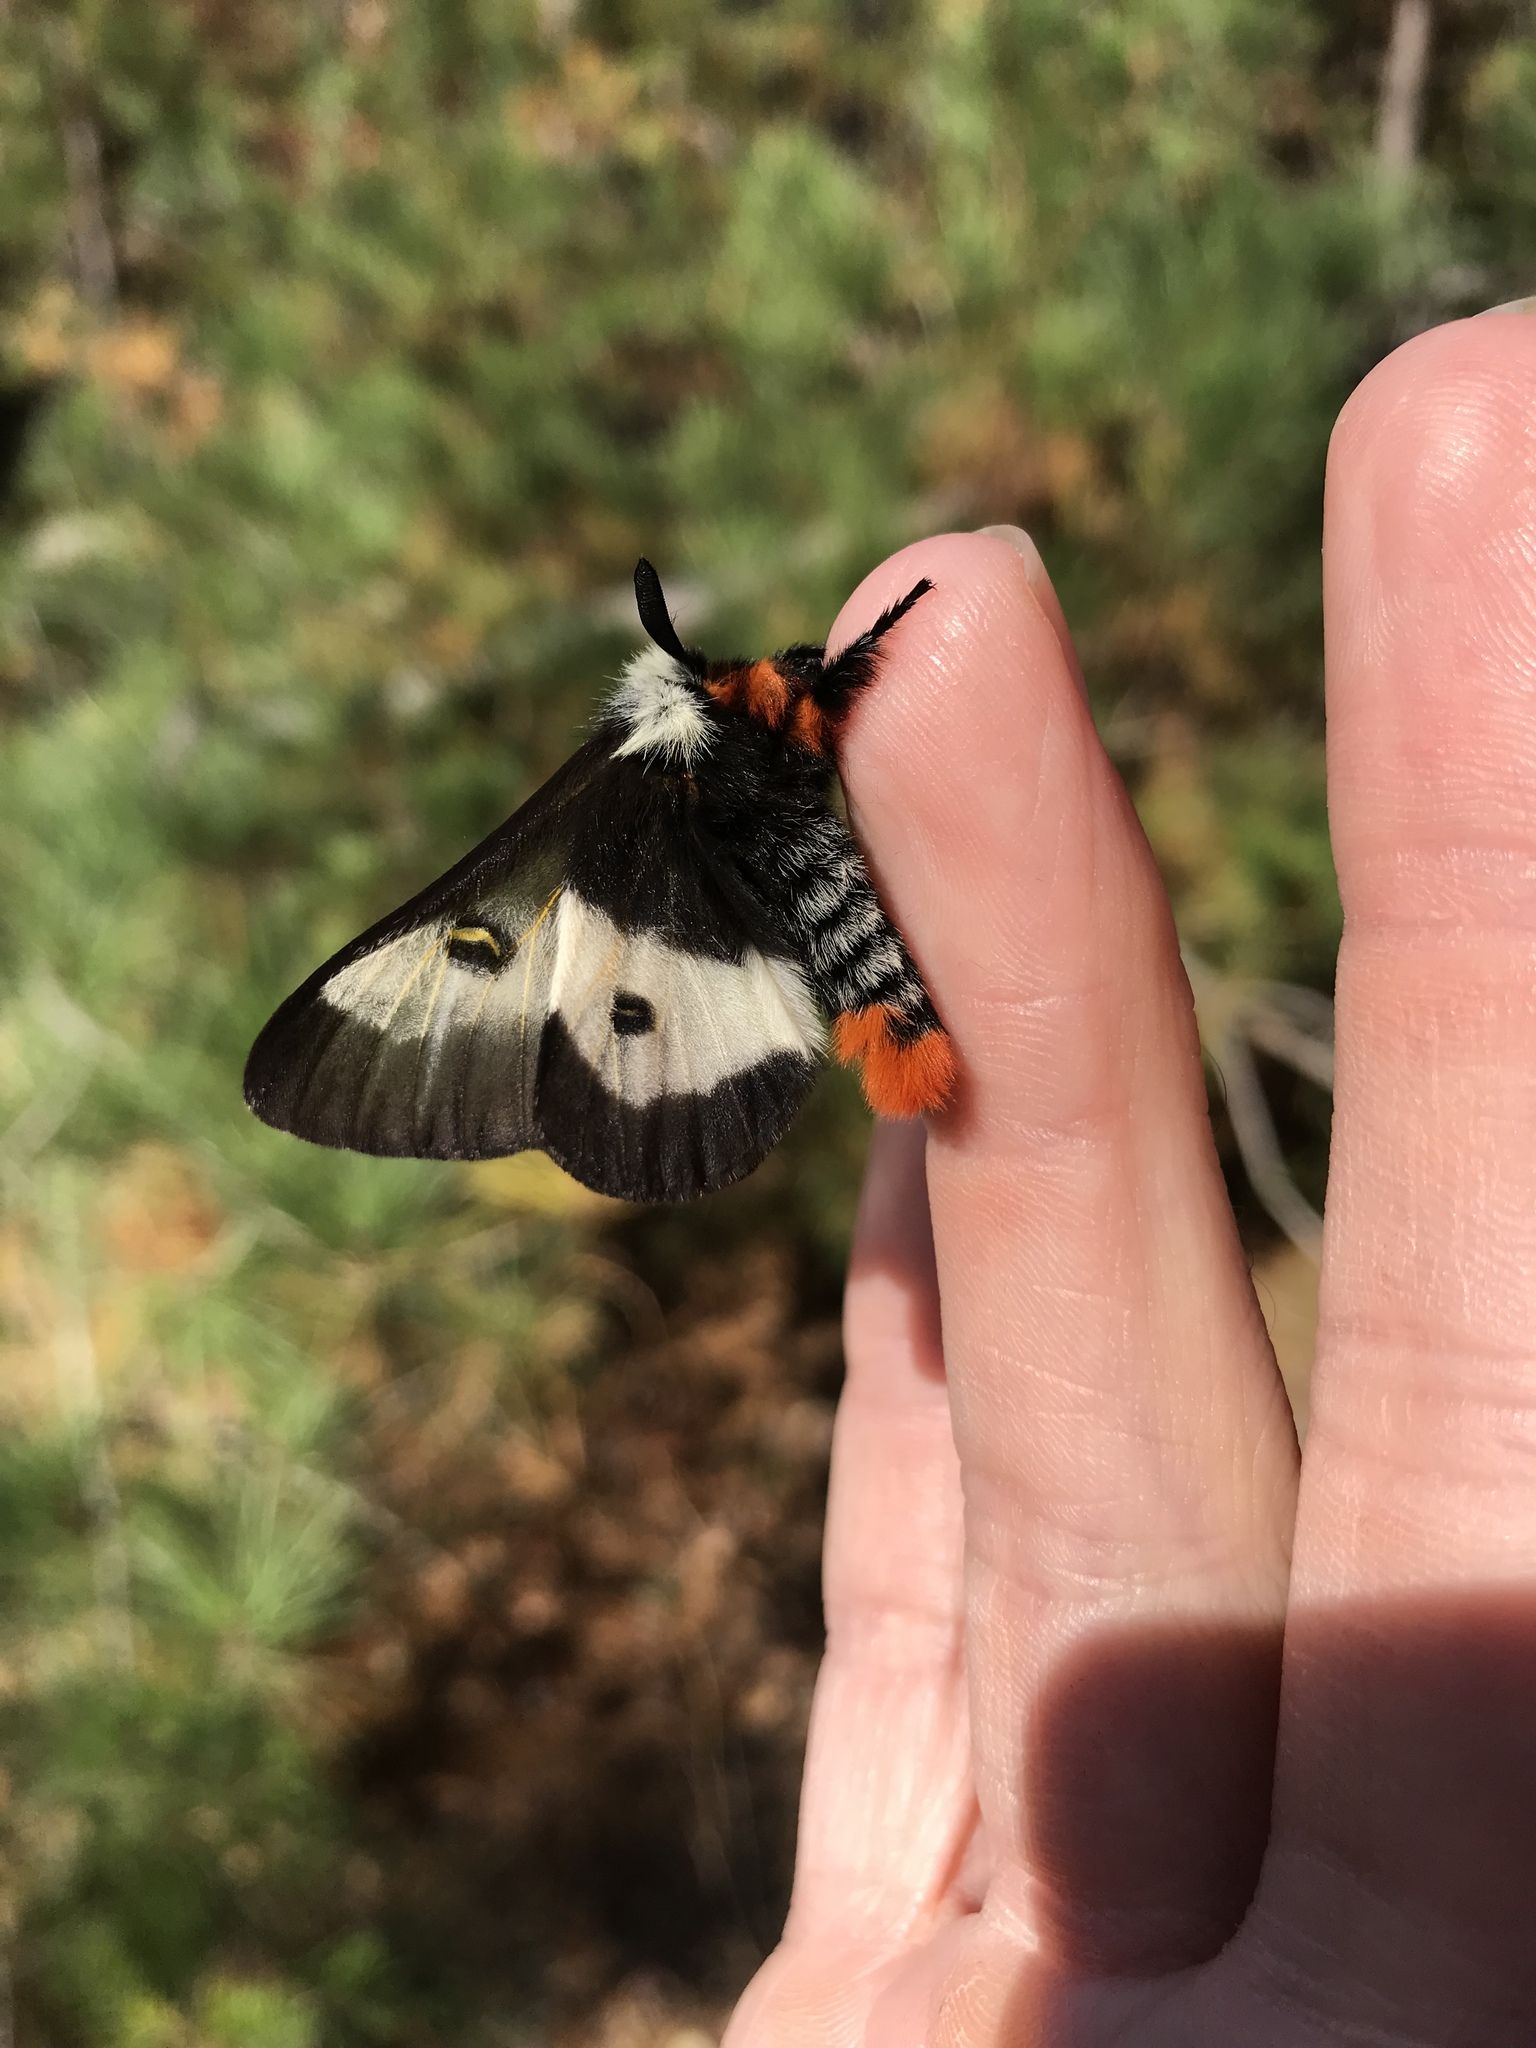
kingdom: Animalia
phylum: Arthropoda
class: Insecta
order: Lepidoptera
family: Saturniidae
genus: Hemileuca
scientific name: Hemileuca maia
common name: Eastern buckmoth
